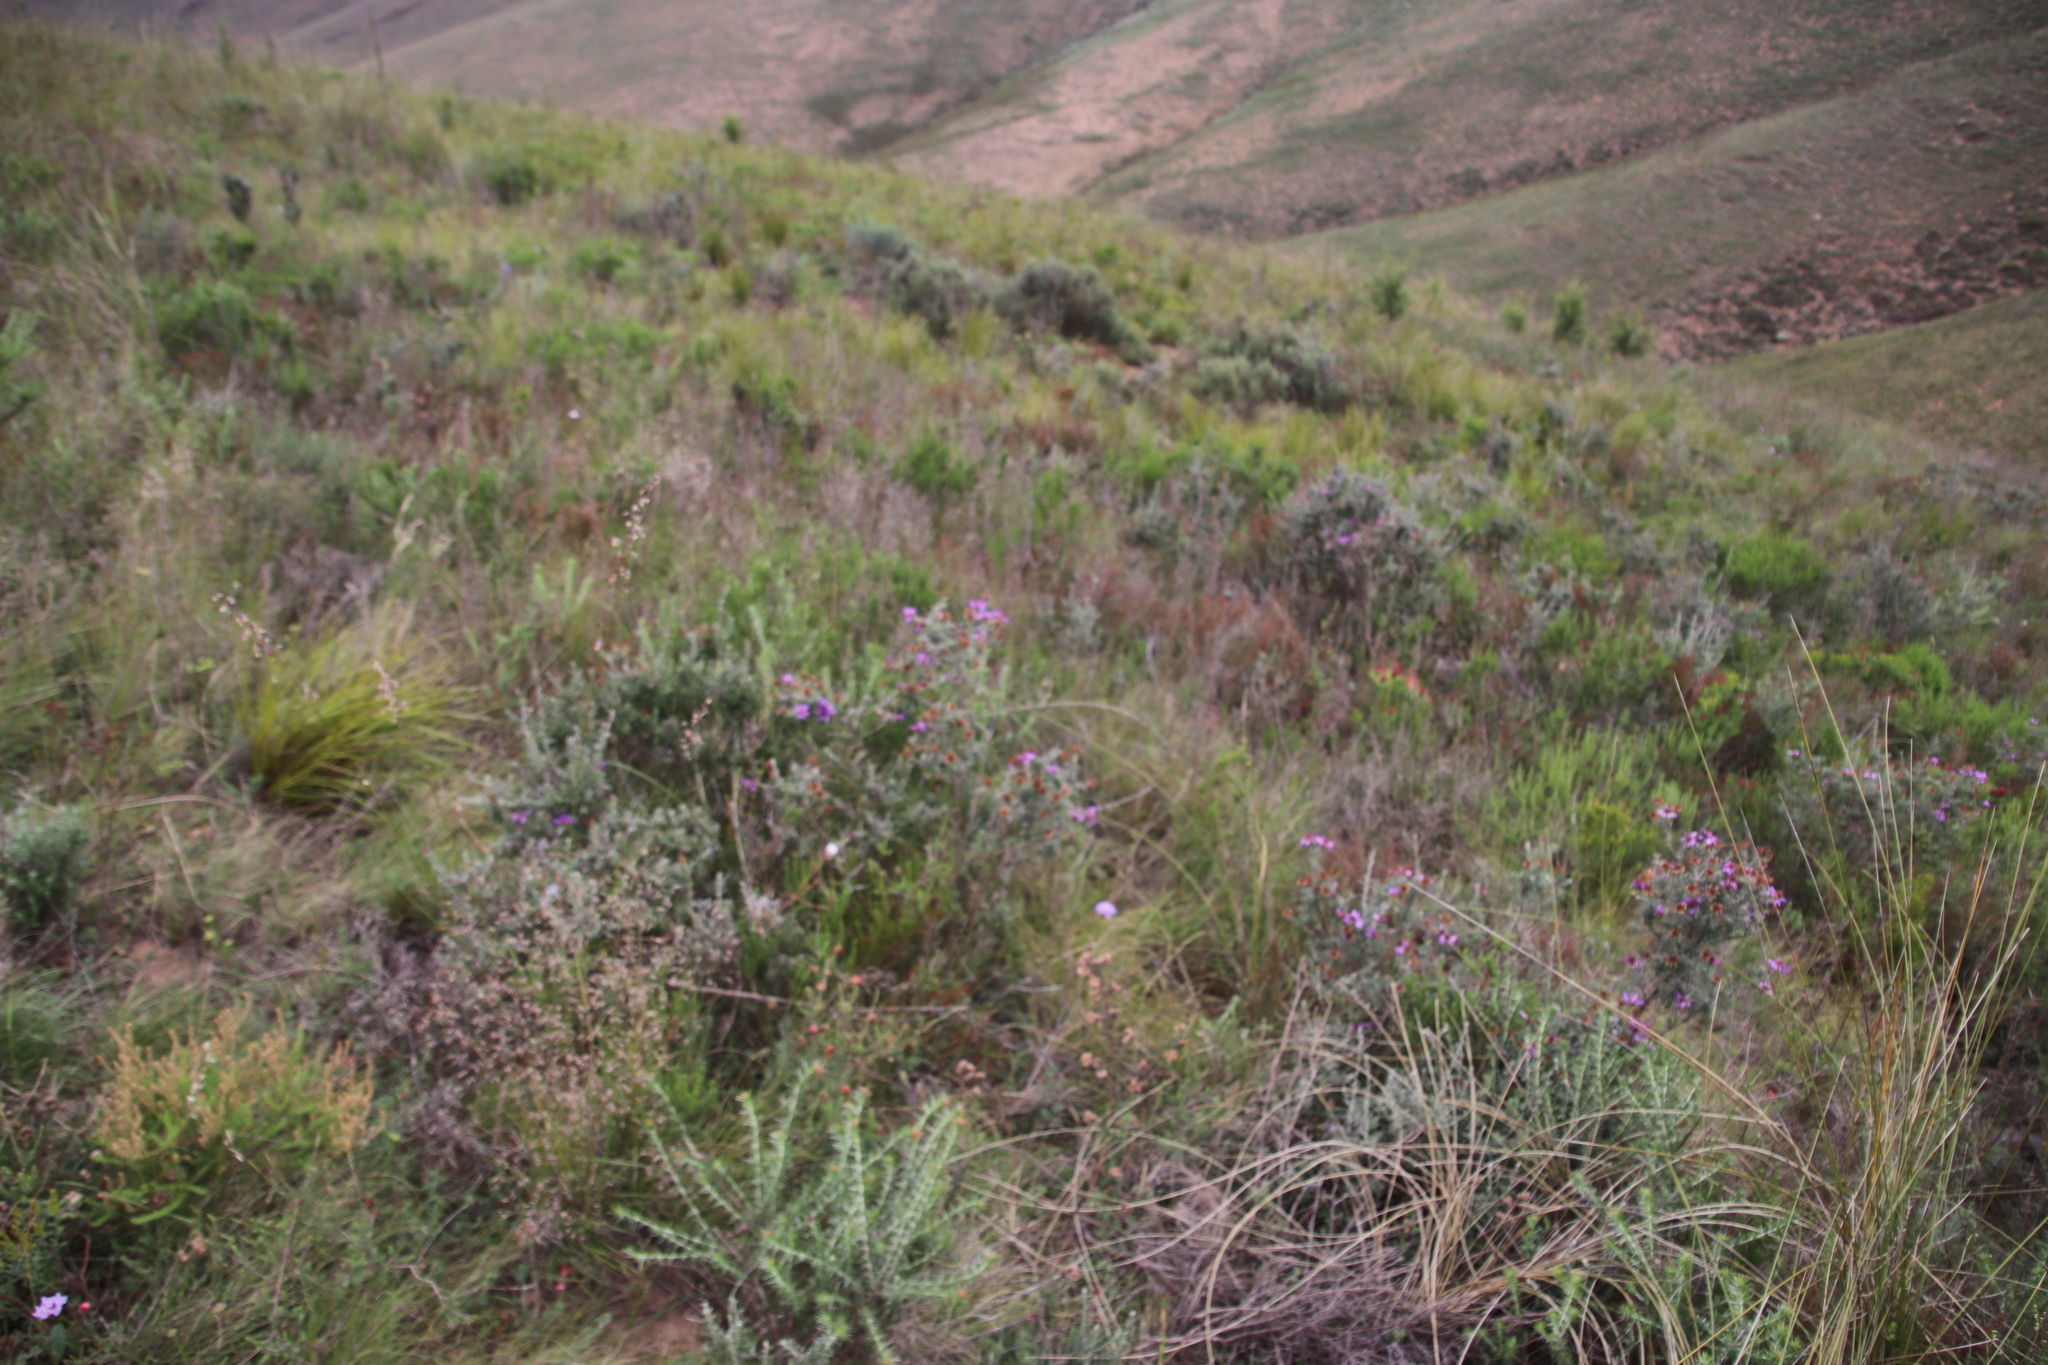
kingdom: Plantae
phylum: Tracheophyta
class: Magnoliopsida
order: Asterales
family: Asteraceae
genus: Printzia
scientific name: Printzia polifolia
